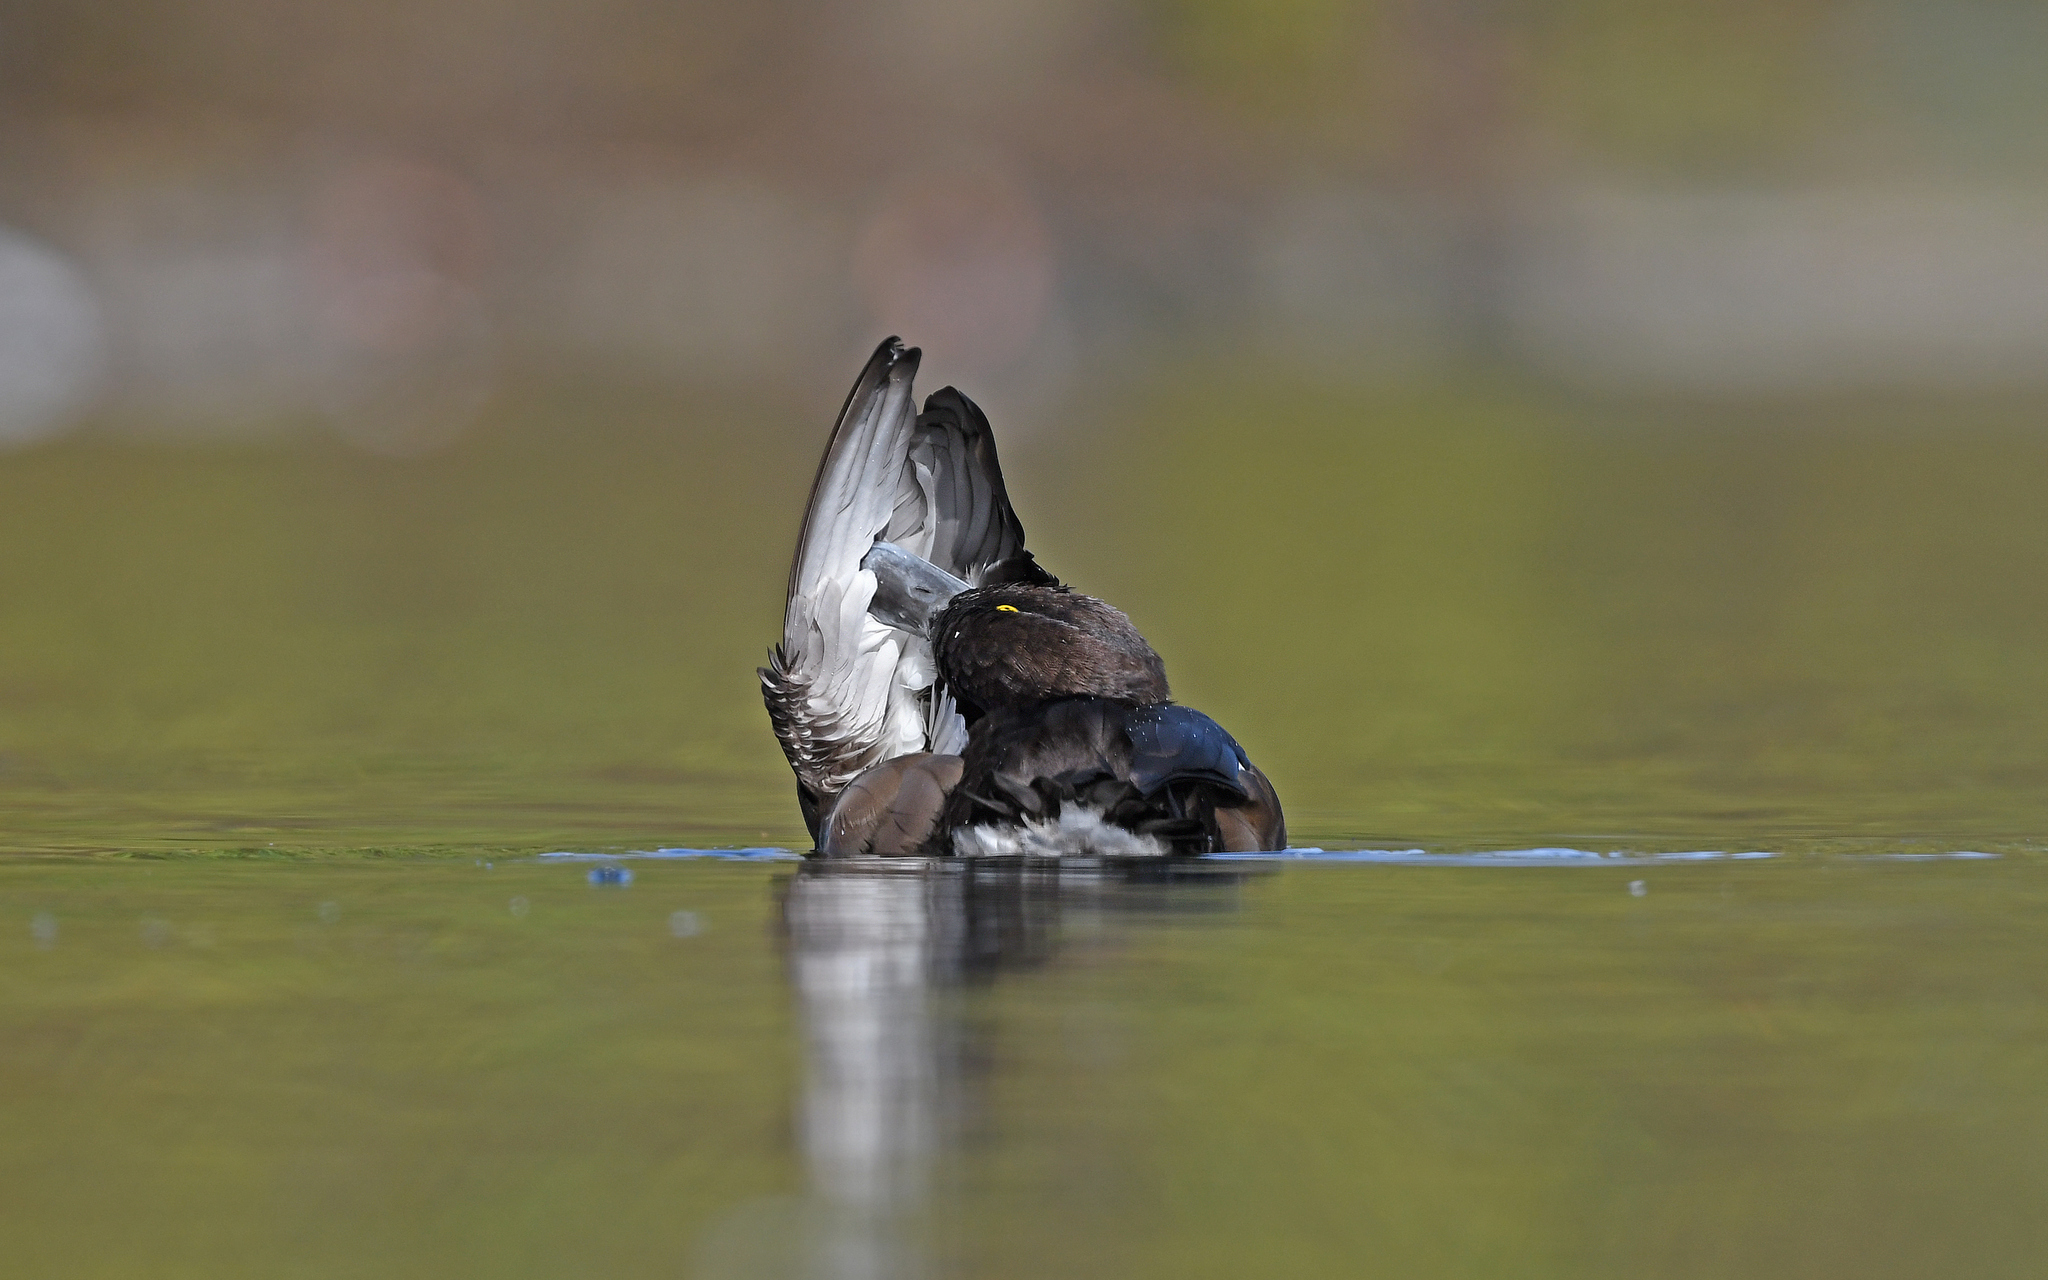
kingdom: Animalia
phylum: Chordata
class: Aves
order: Anseriformes
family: Anatidae
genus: Aythya
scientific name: Aythya fuligula
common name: Tufted duck
